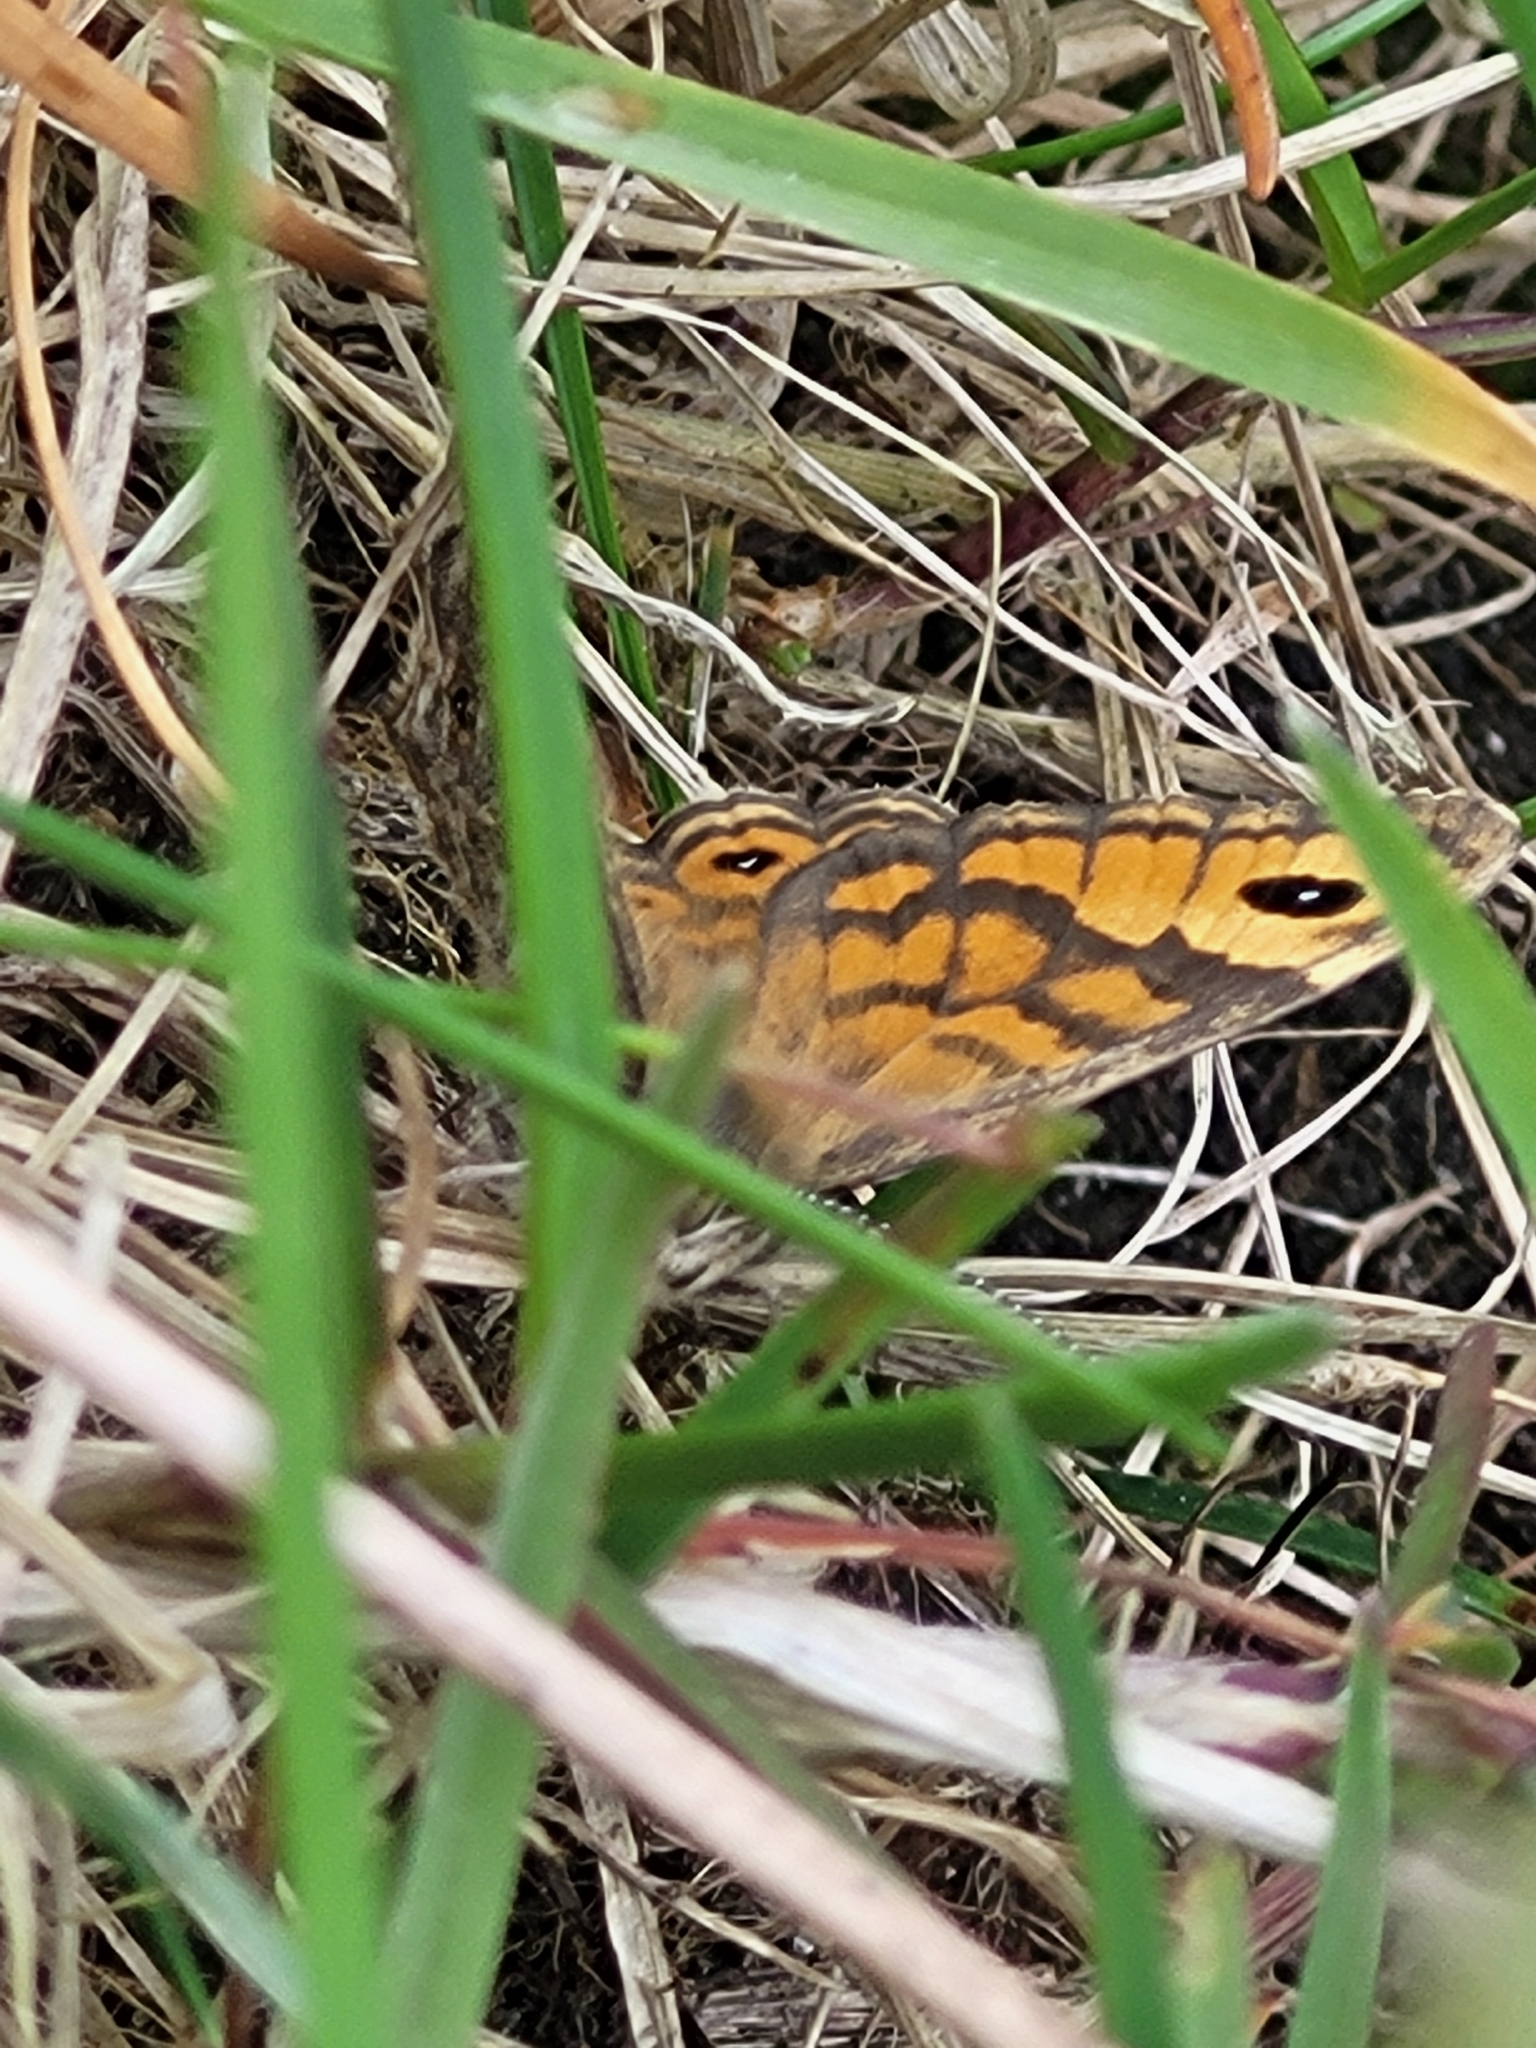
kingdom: Animalia
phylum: Arthropoda
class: Insecta
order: Lepidoptera
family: Nymphalidae
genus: Pararge
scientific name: Pararge Lasiommata megera
